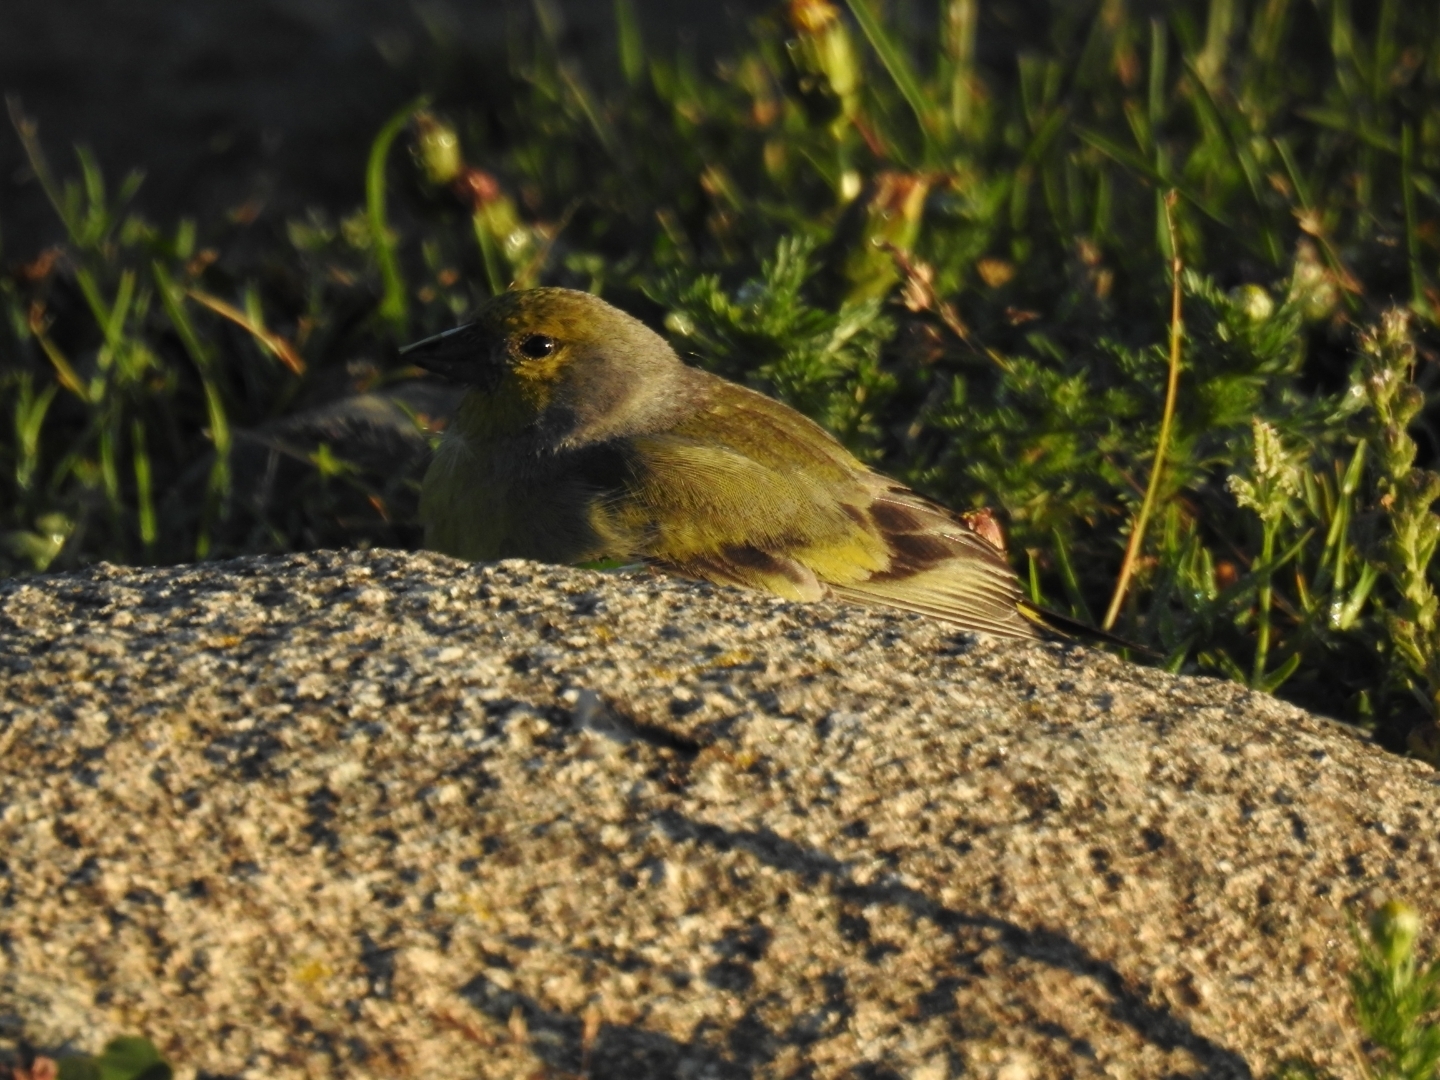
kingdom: Animalia
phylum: Chordata
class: Aves
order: Passeriformes
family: Fringillidae
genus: Carduelis
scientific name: Carduelis citrinella
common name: Citril finch
